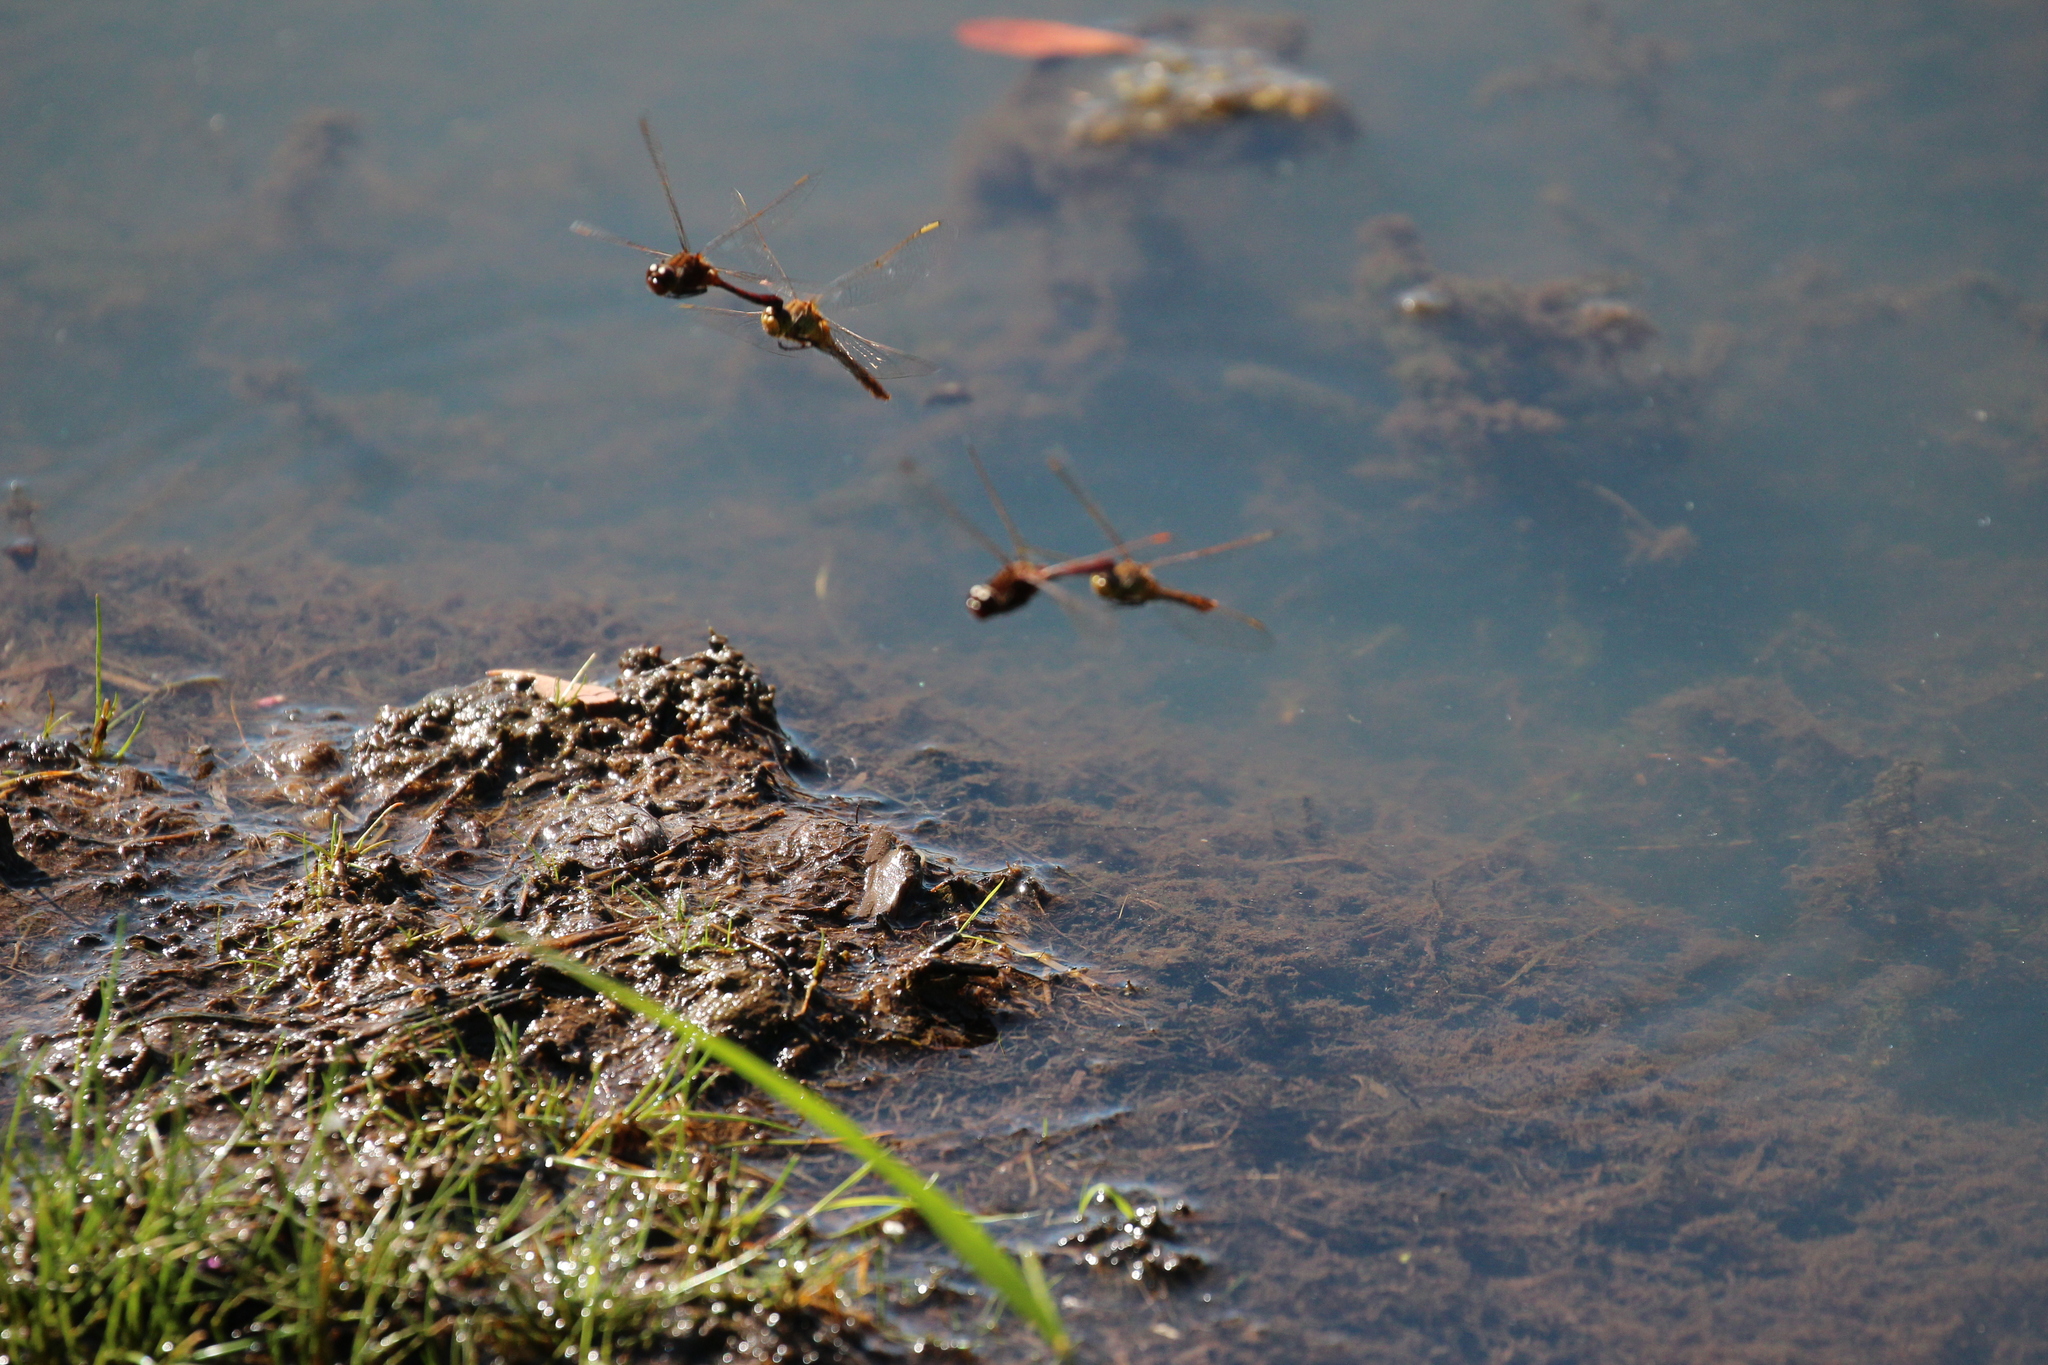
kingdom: Animalia
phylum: Arthropoda
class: Insecta
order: Odonata
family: Libellulidae
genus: Sympetrum
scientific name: Sympetrum costiferum
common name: Saffron-winged meadowhawk
